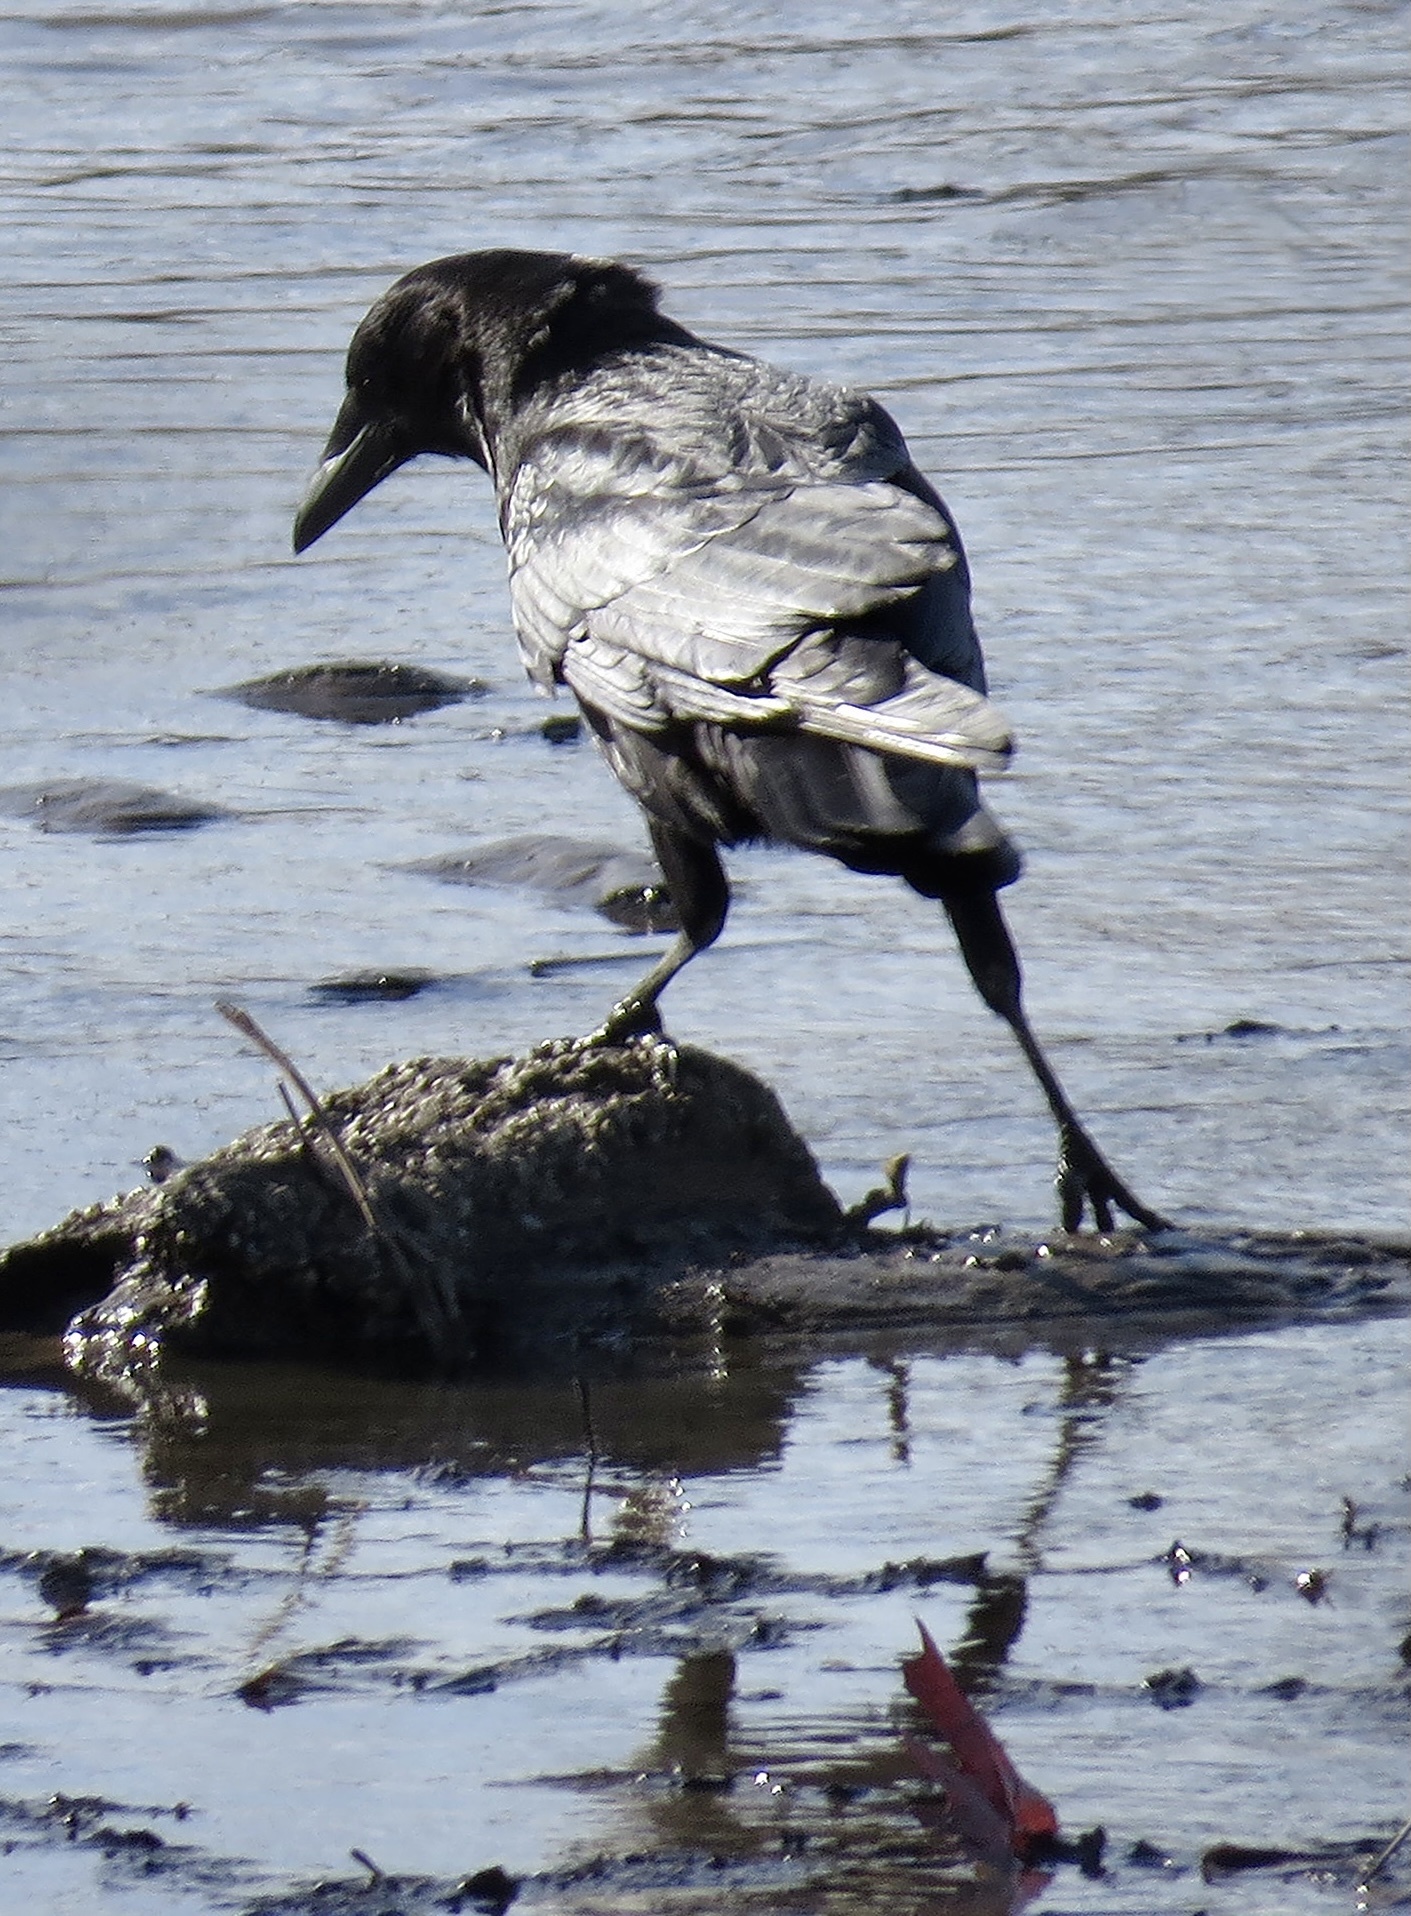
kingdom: Animalia
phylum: Chordata
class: Aves
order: Passeriformes
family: Corvidae
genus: Corvus
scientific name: Corvus brachyrhynchos
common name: American crow
